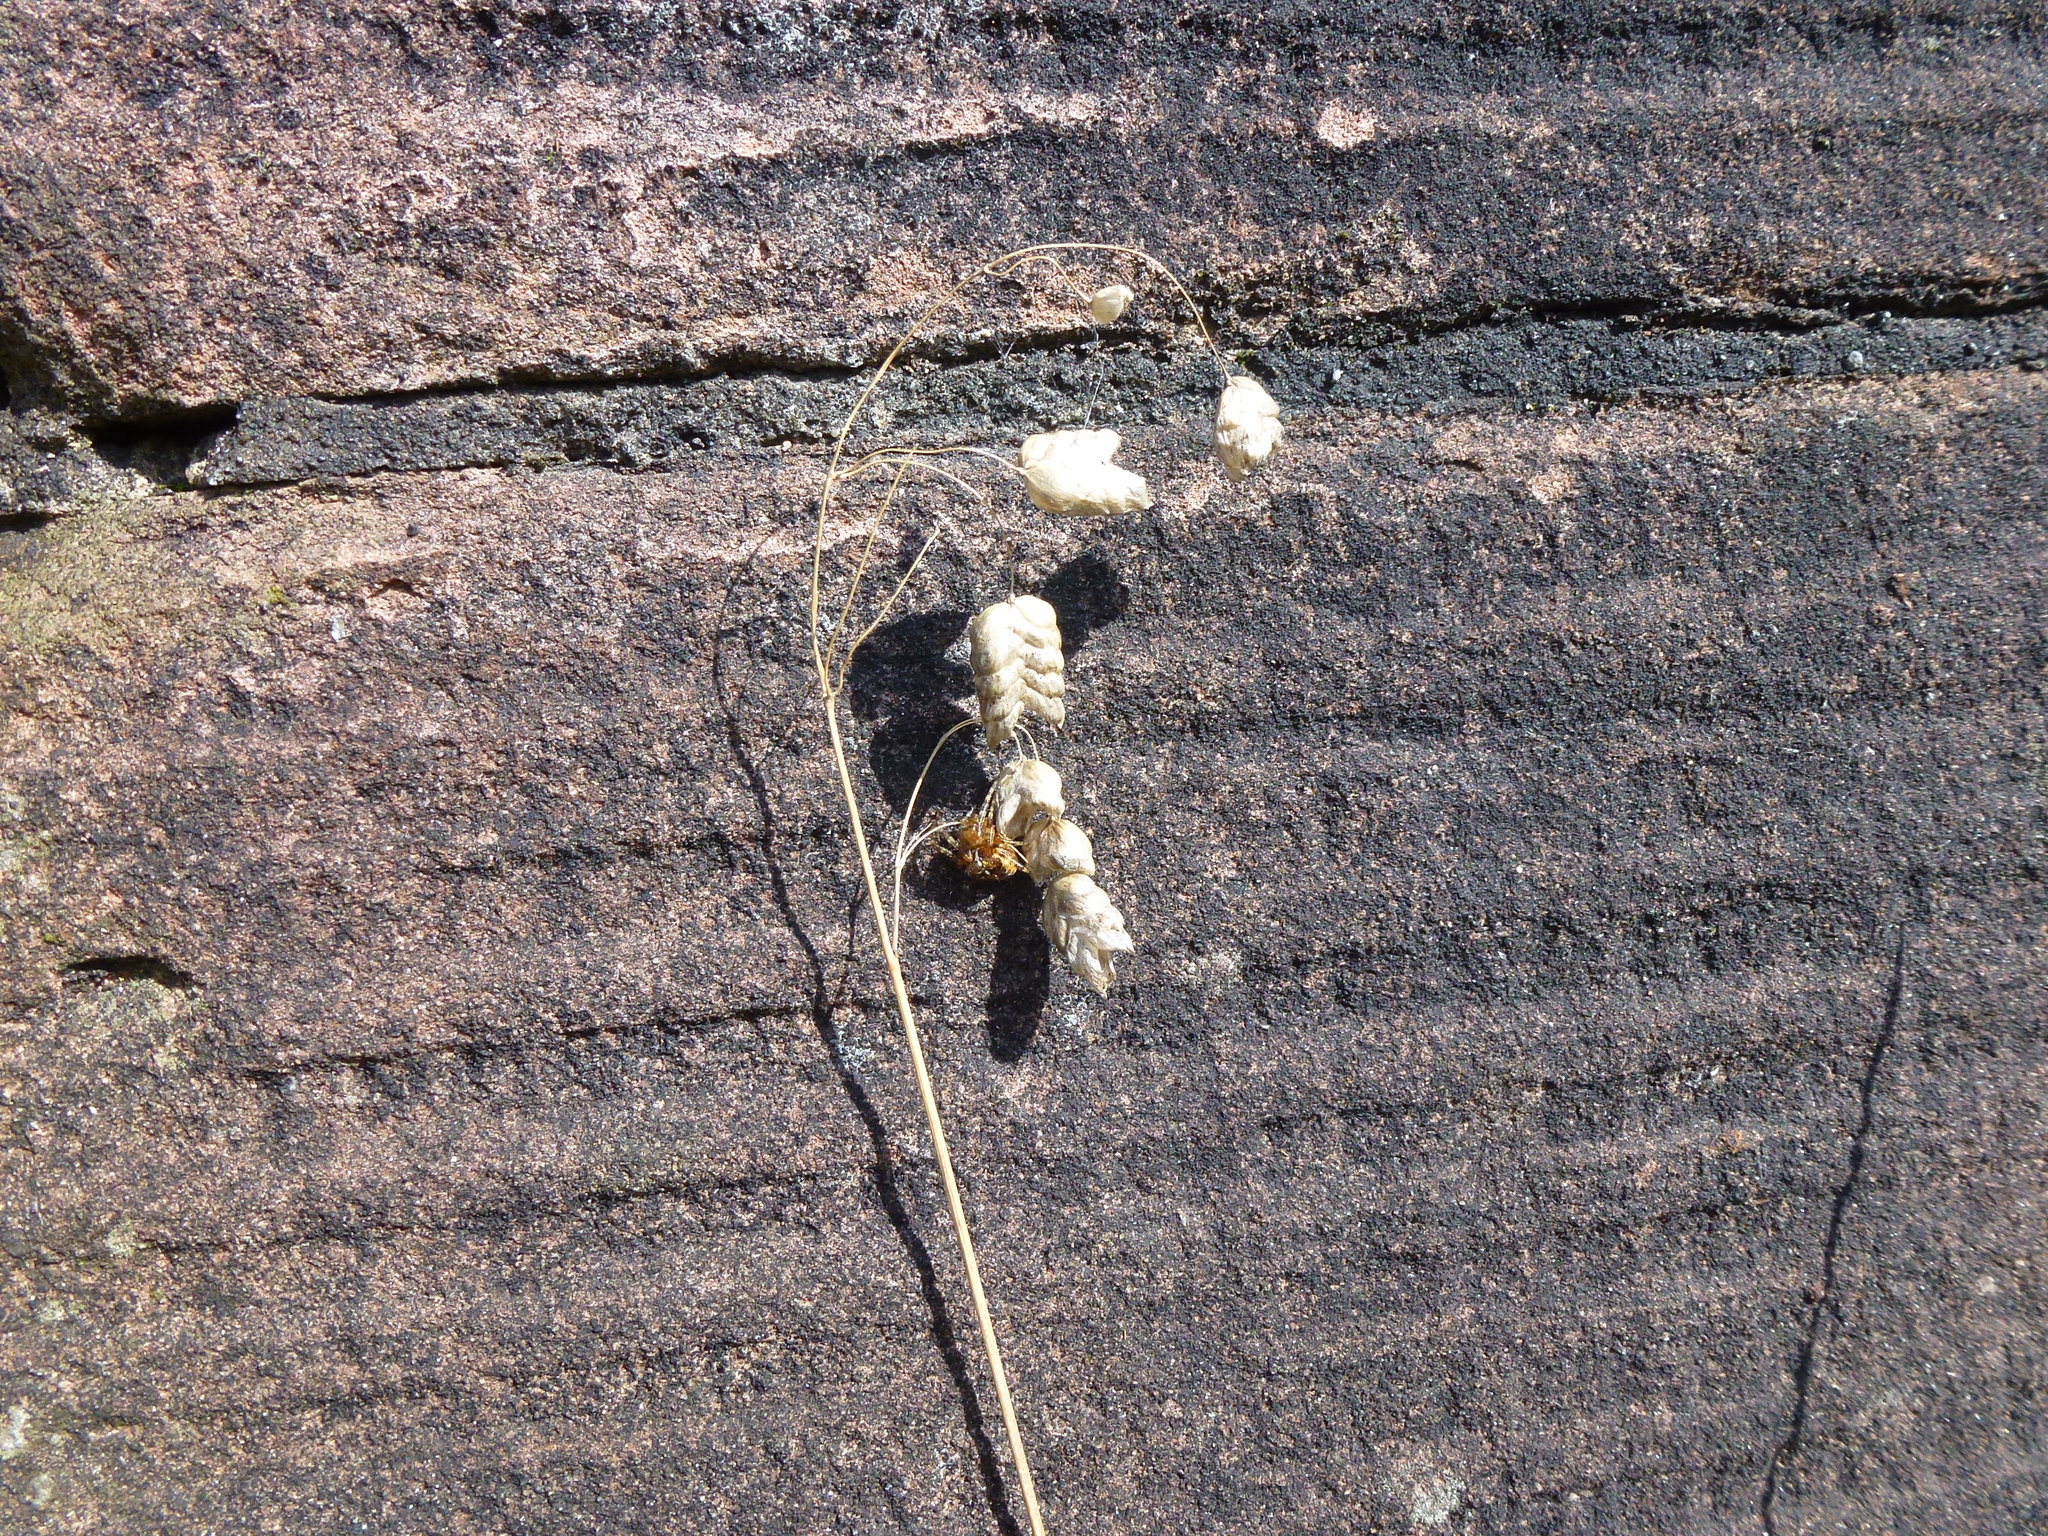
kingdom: Plantae
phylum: Tracheophyta
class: Liliopsida
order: Poales
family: Poaceae
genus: Briza
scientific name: Briza maxima
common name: Big quakinggrass
